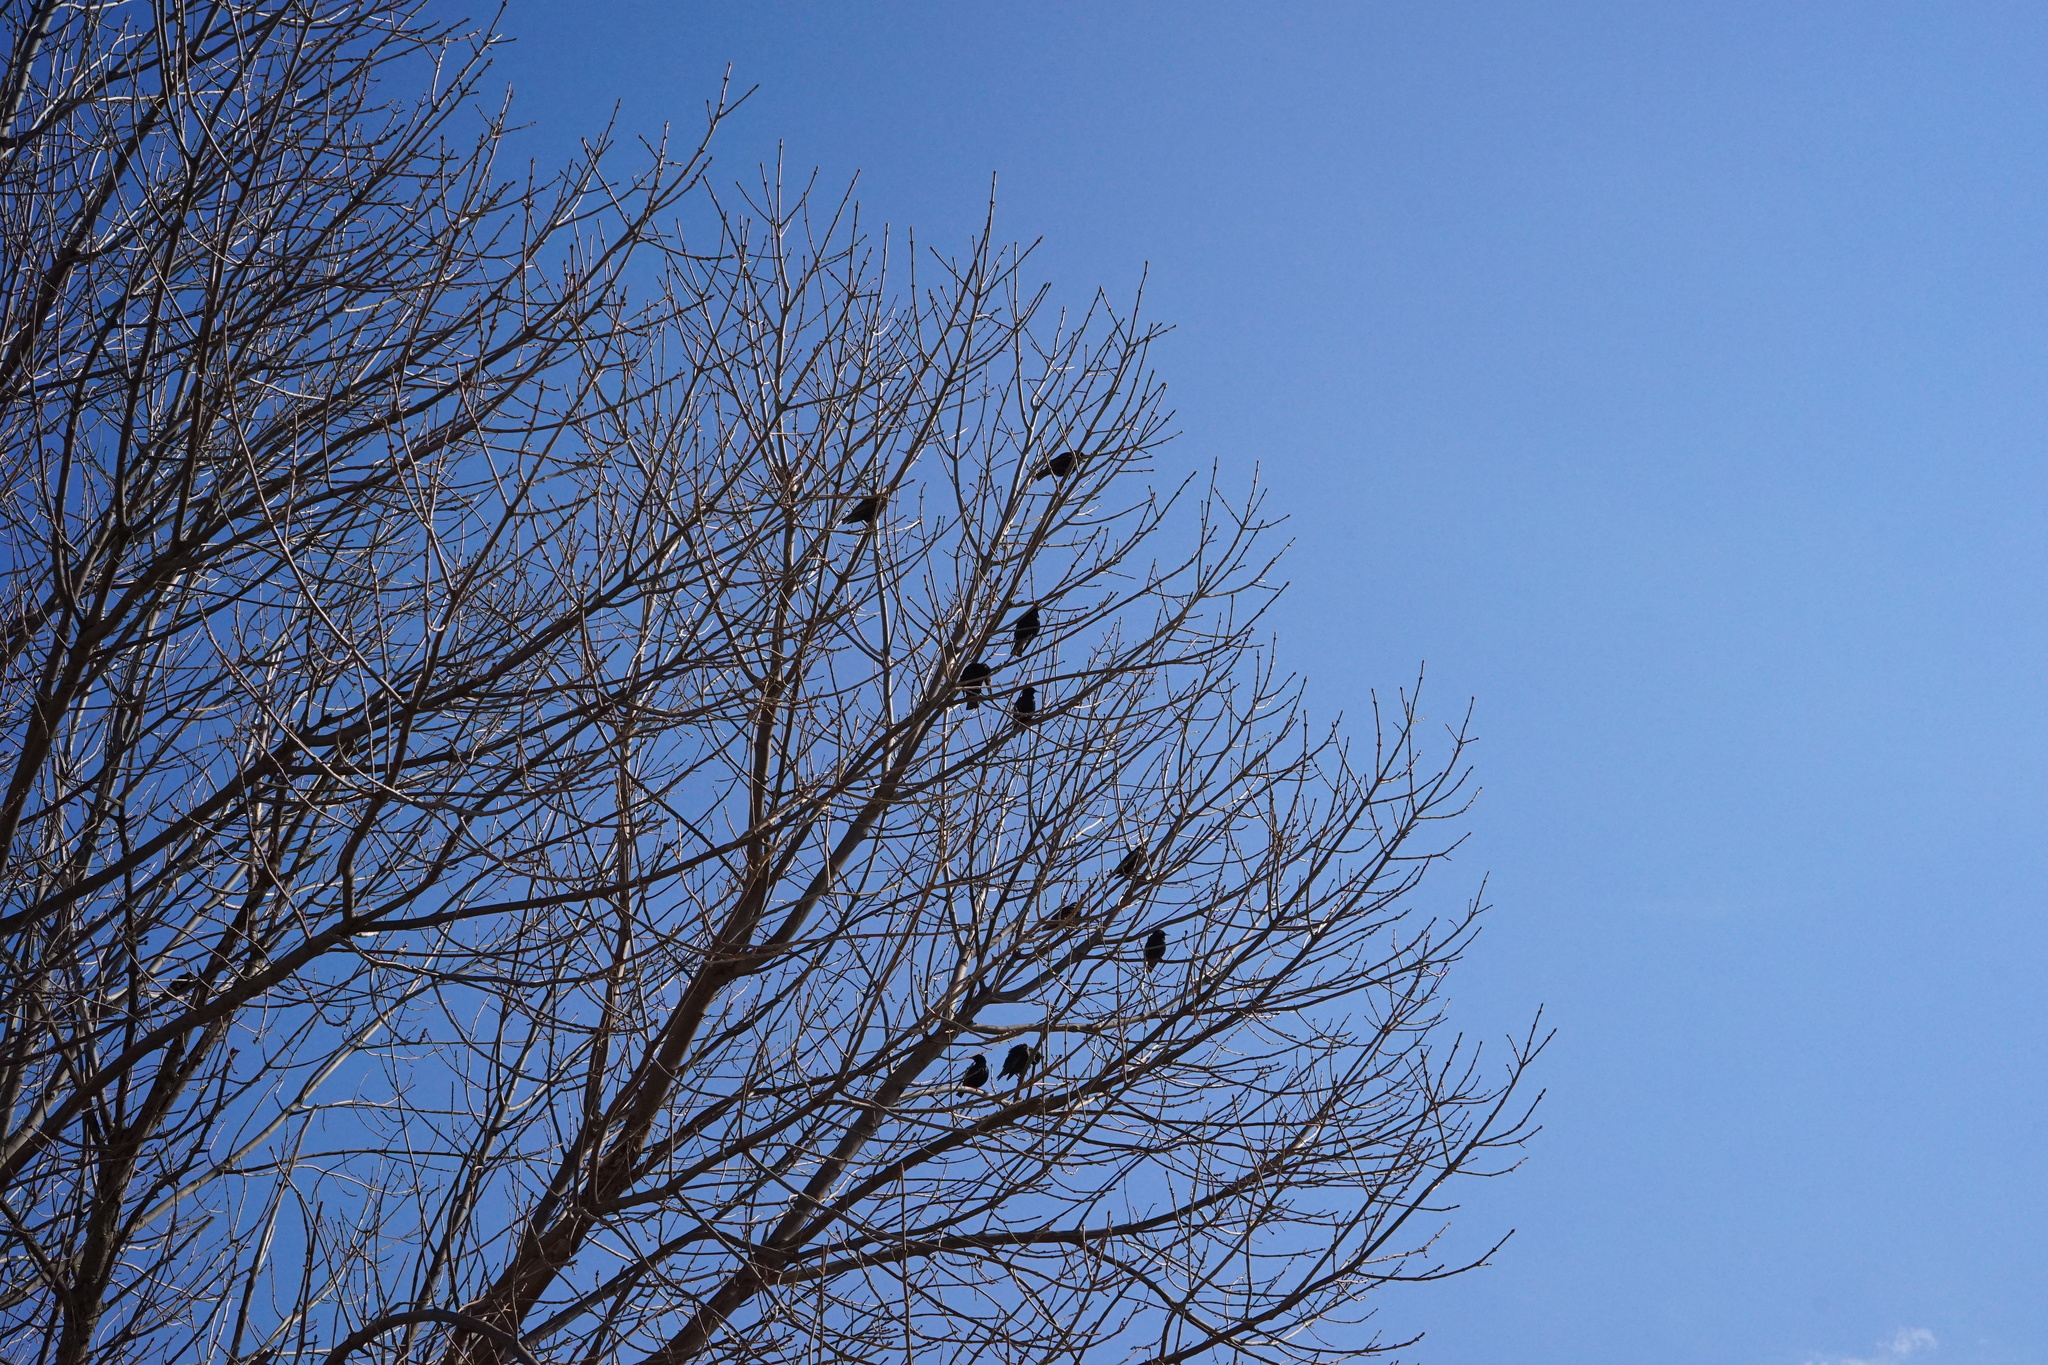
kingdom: Animalia
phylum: Chordata
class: Aves
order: Passeriformes
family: Sturnidae
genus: Sturnus
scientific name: Sturnus vulgaris
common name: Common starling
